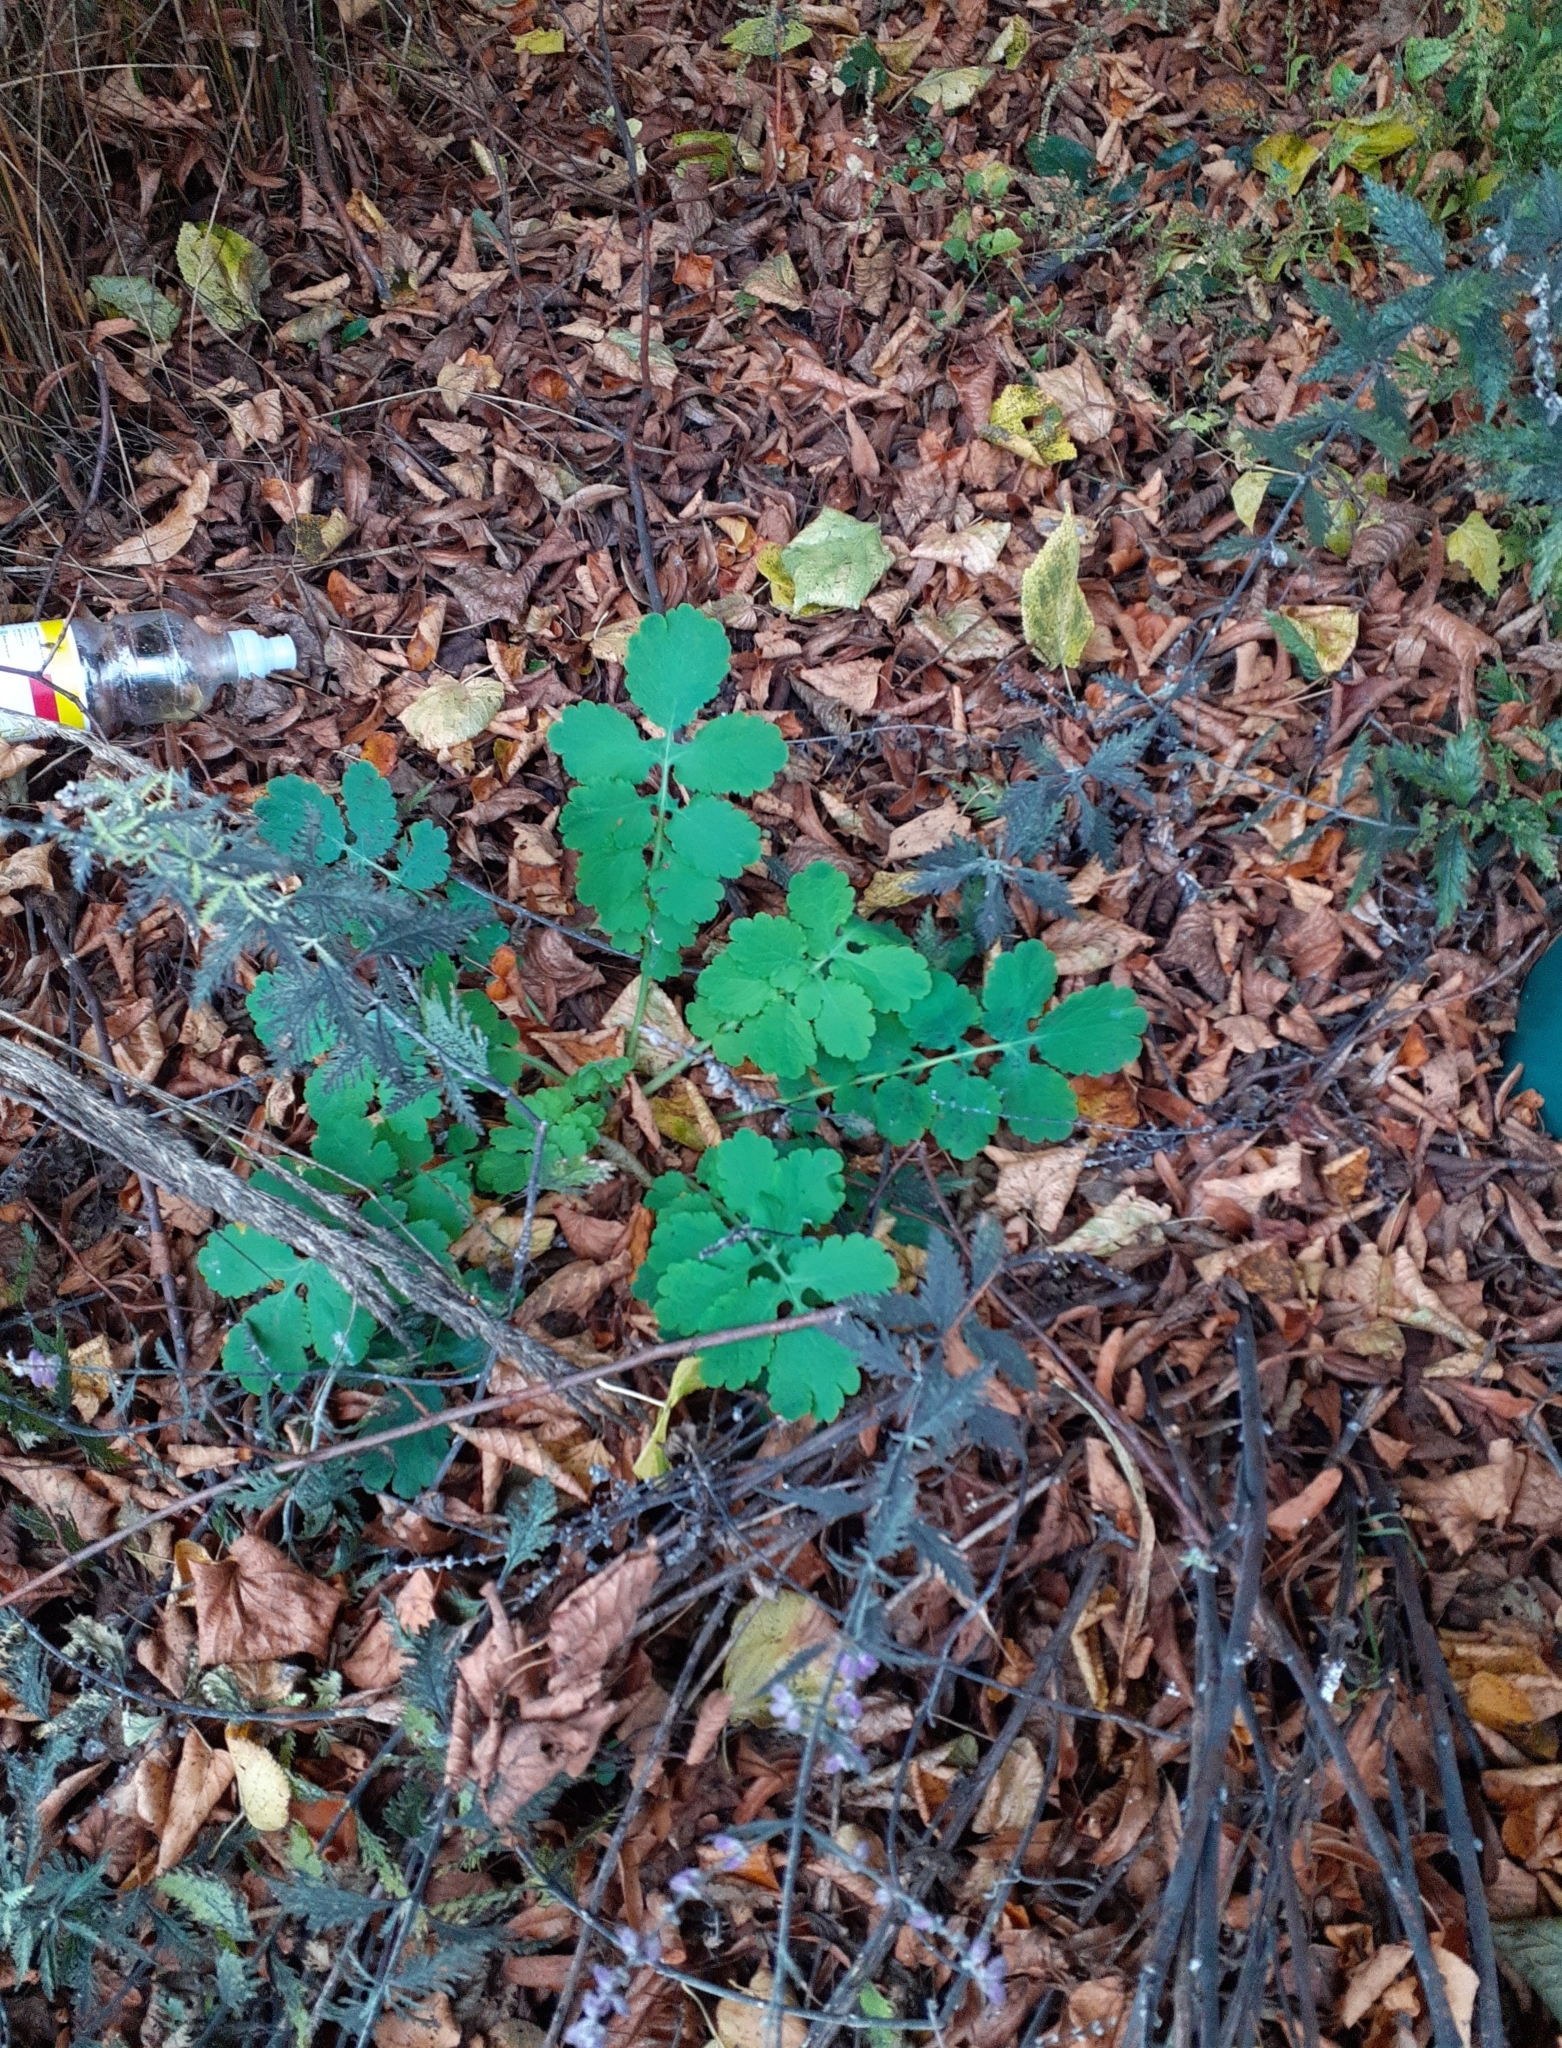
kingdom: Plantae
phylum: Tracheophyta
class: Magnoliopsida
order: Ranunculales
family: Papaveraceae
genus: Chelidonium
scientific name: Chelidonium majus
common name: Greater celandine
